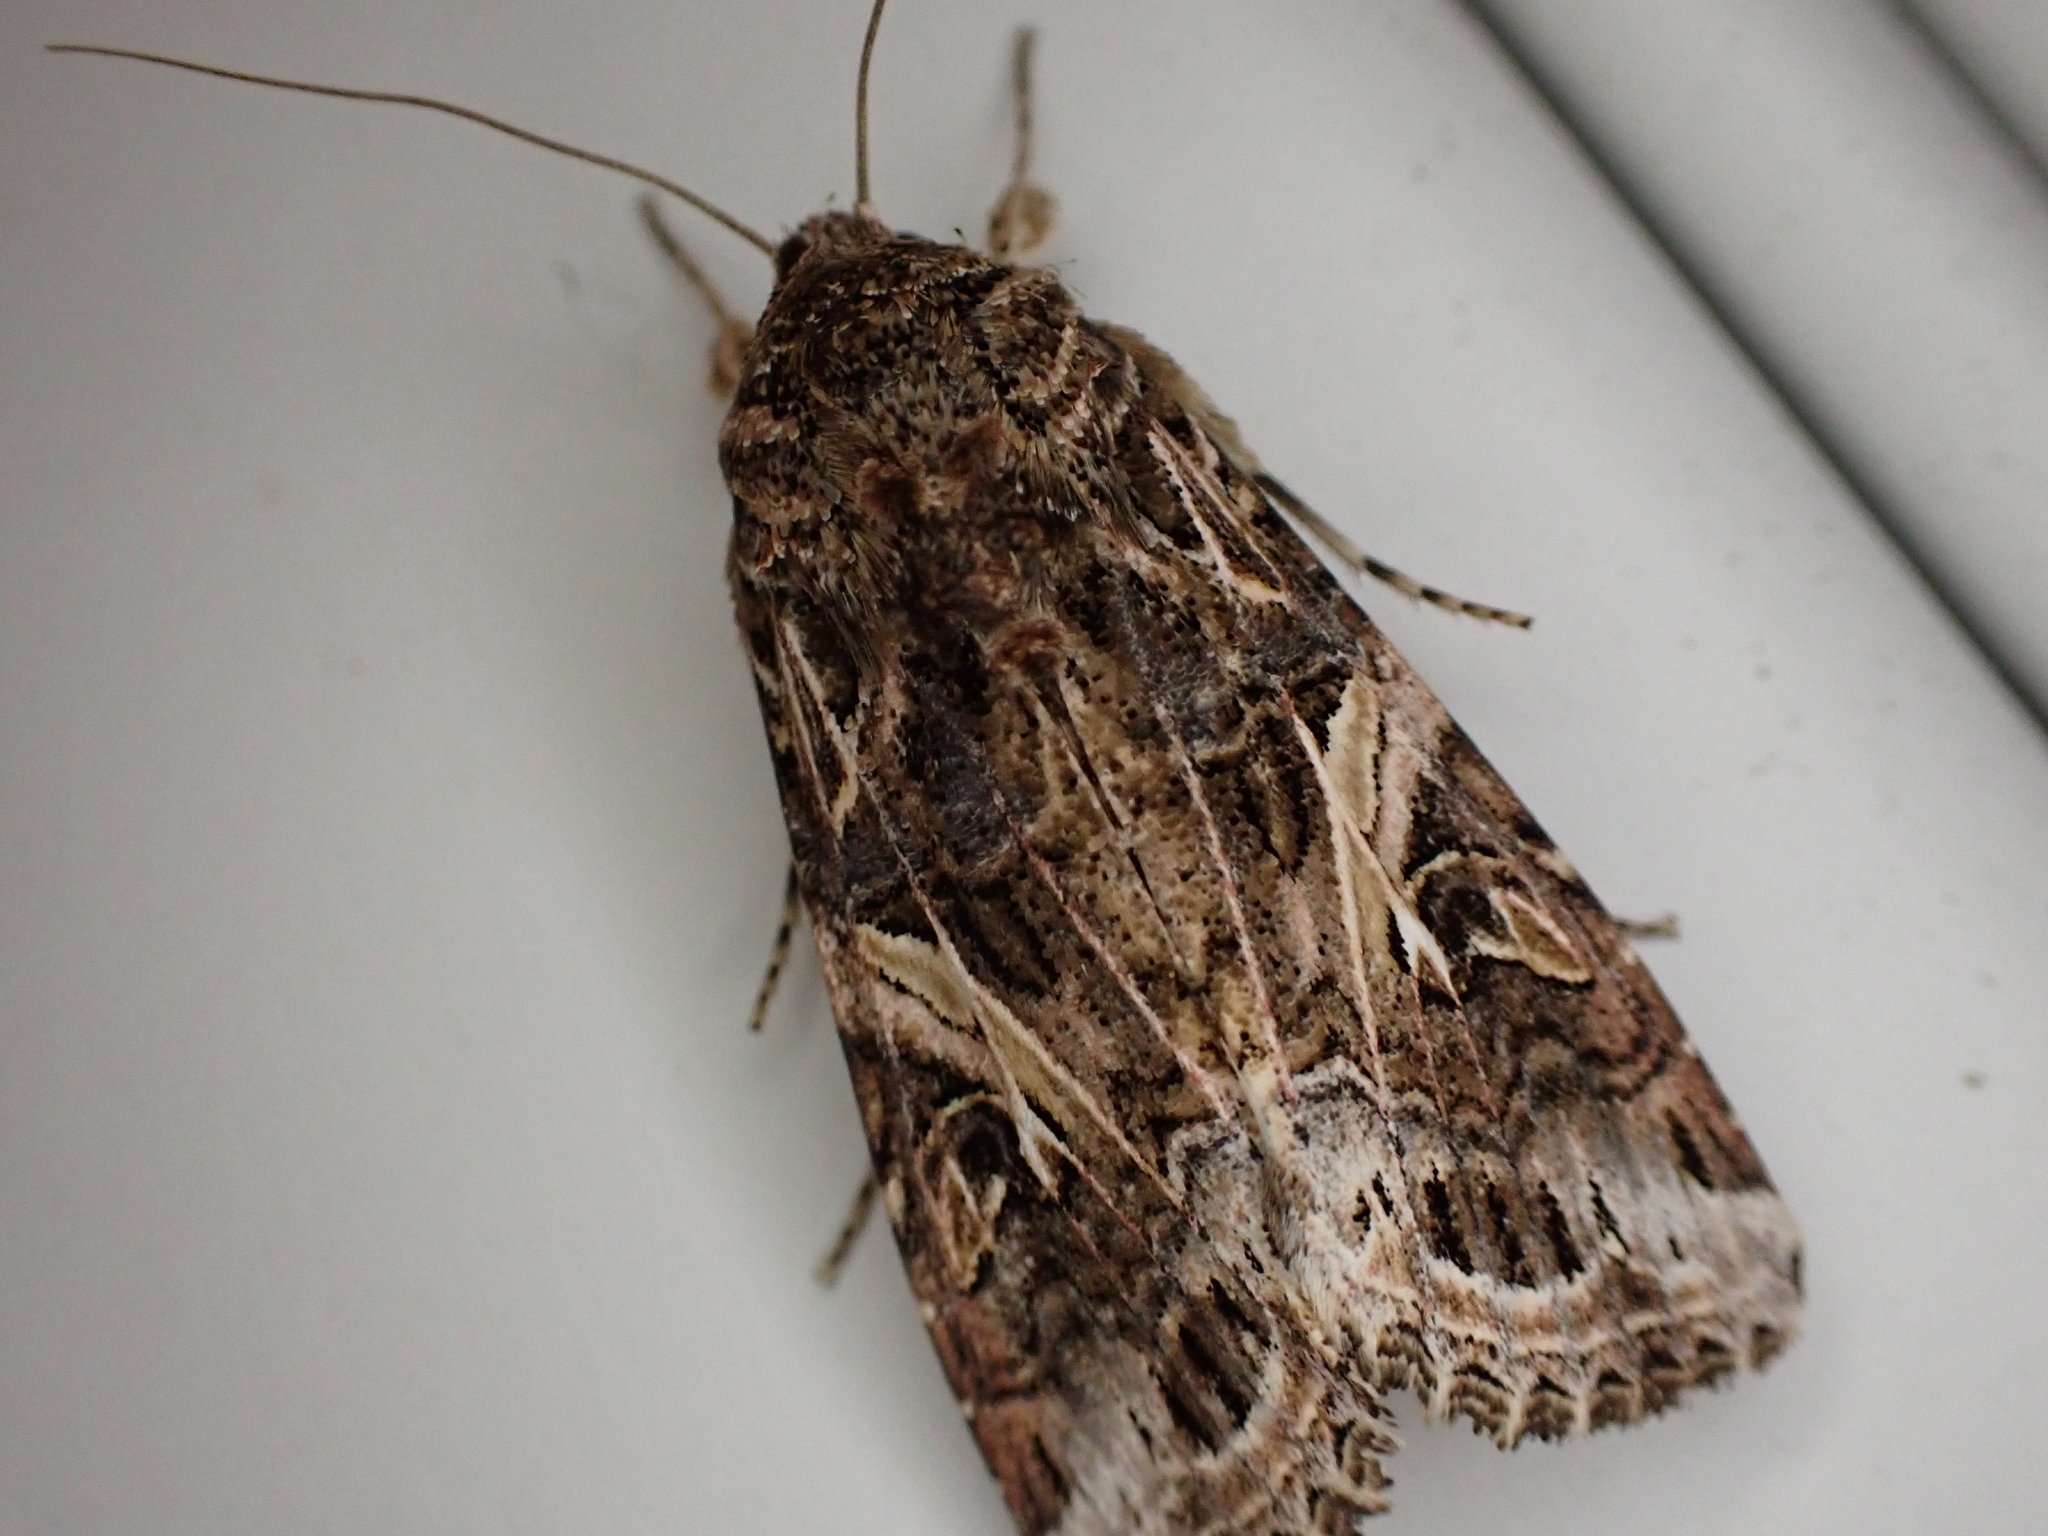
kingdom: Animalia
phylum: Arthropoda
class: Insecta
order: Lepidoptera
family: Noctuidae
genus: Spodoptera
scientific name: Spodoptera ornithogalli
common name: Yellow-striped armyworm
